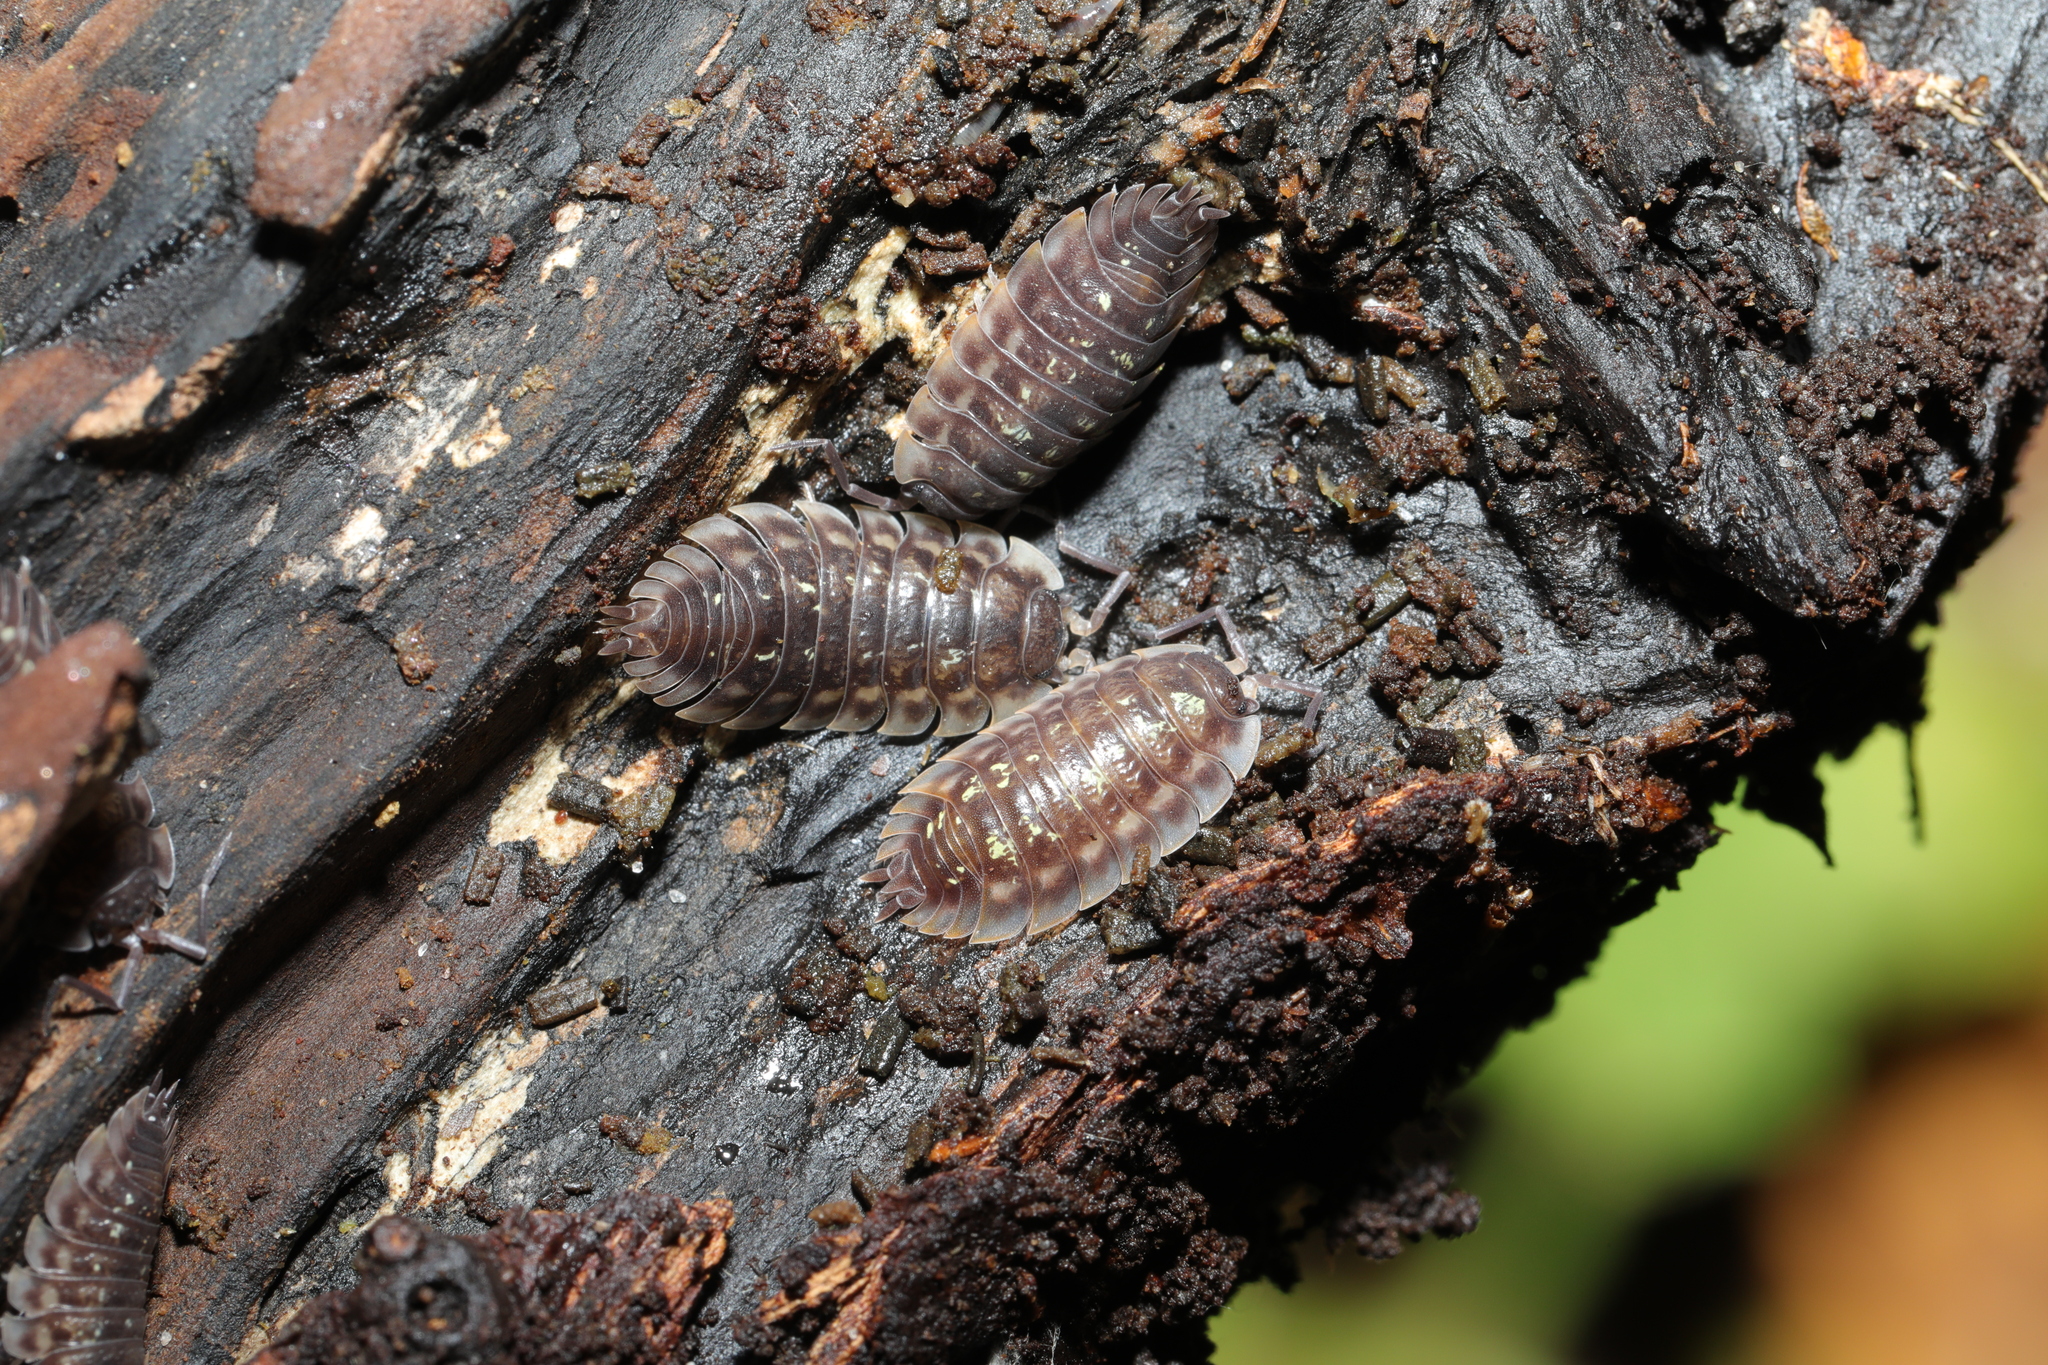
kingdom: Animalia
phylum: Arthropoda
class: Malacostraca
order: Isopoda
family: Oniscidae
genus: Oniscus
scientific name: Oniscus asellus
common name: Common shiny woodlouse
